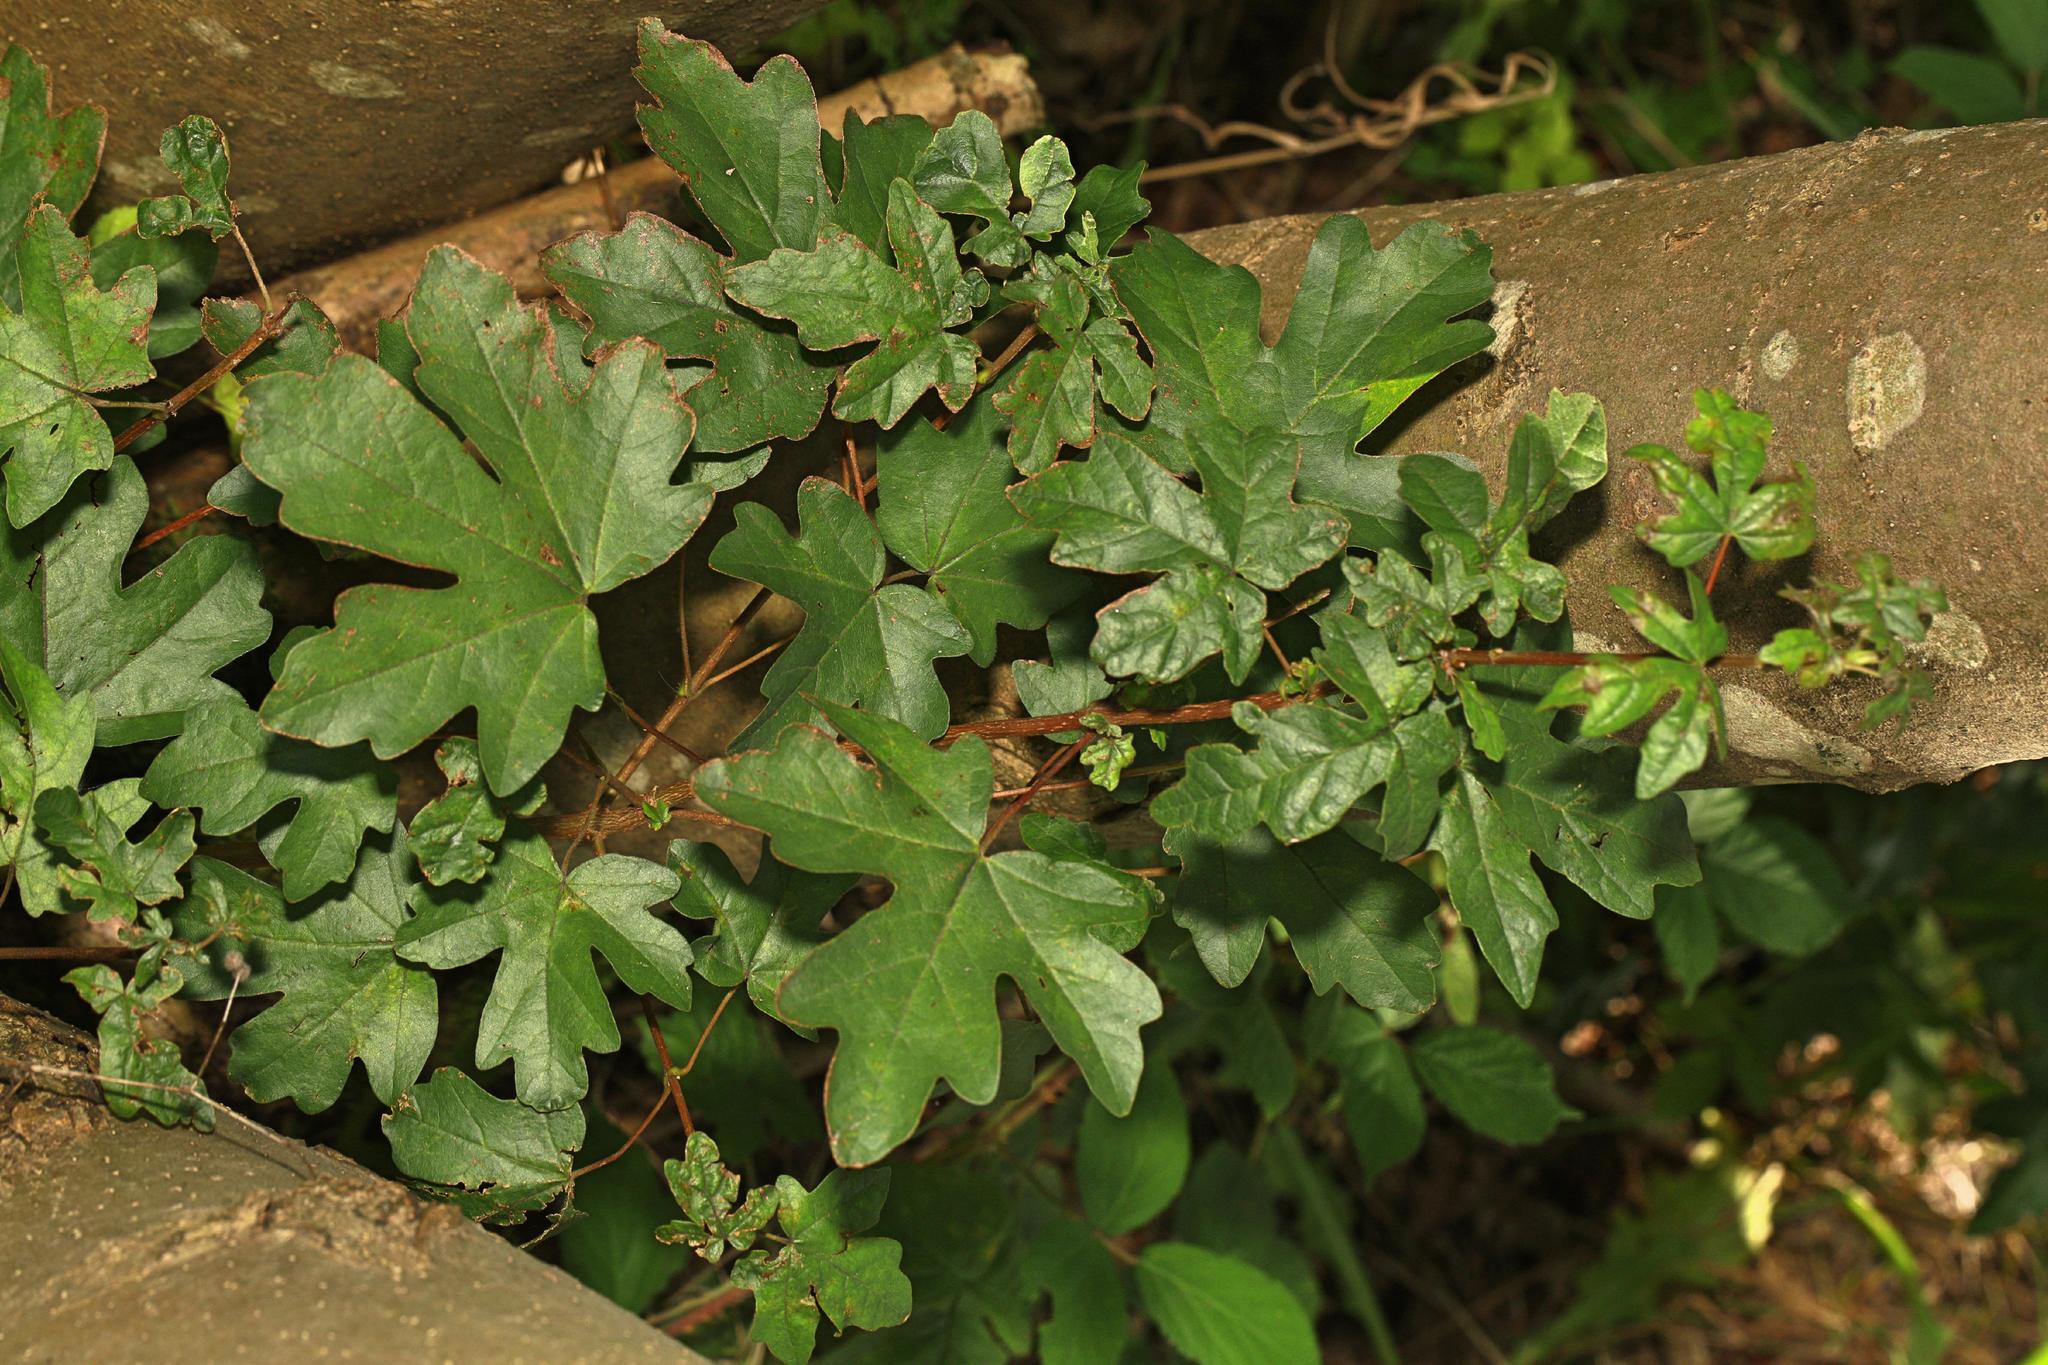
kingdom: Plantae
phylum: Tracheophyta
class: Magnoliopsida
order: Sapindales
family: Sapindaceae
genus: Acer
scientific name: Acer campestre
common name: Field maple
